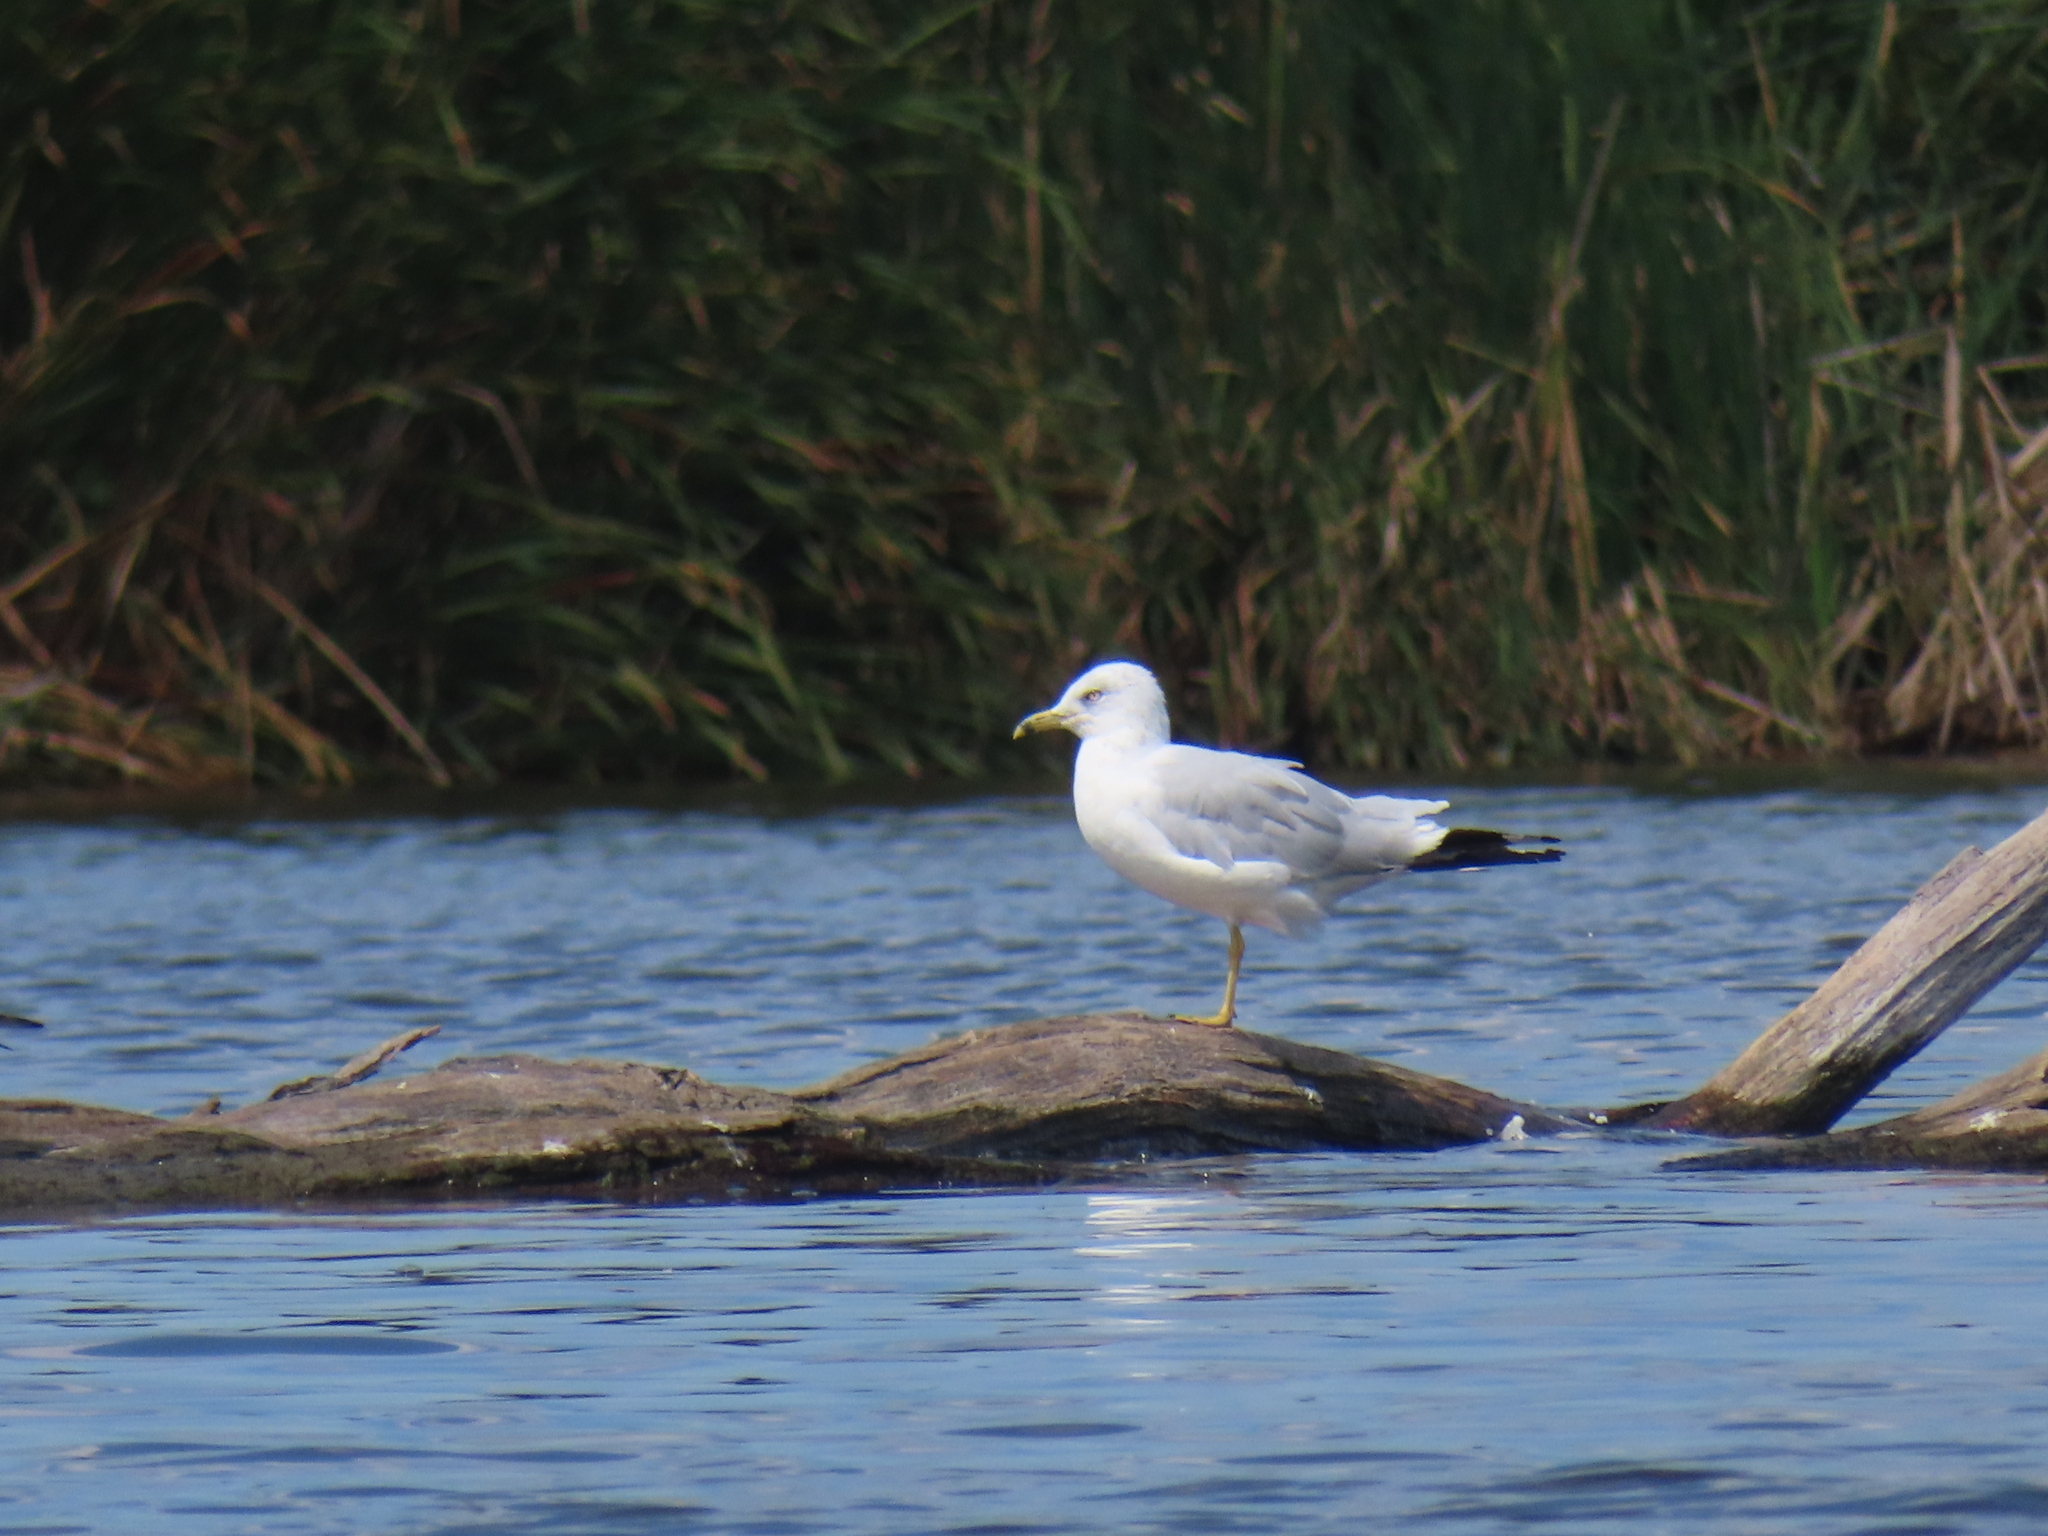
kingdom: Animalia
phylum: Chordata
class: Aves
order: Charadriiformes
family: Laridae
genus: Larus
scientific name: Larus delawarensis
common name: Ring-billed gull
